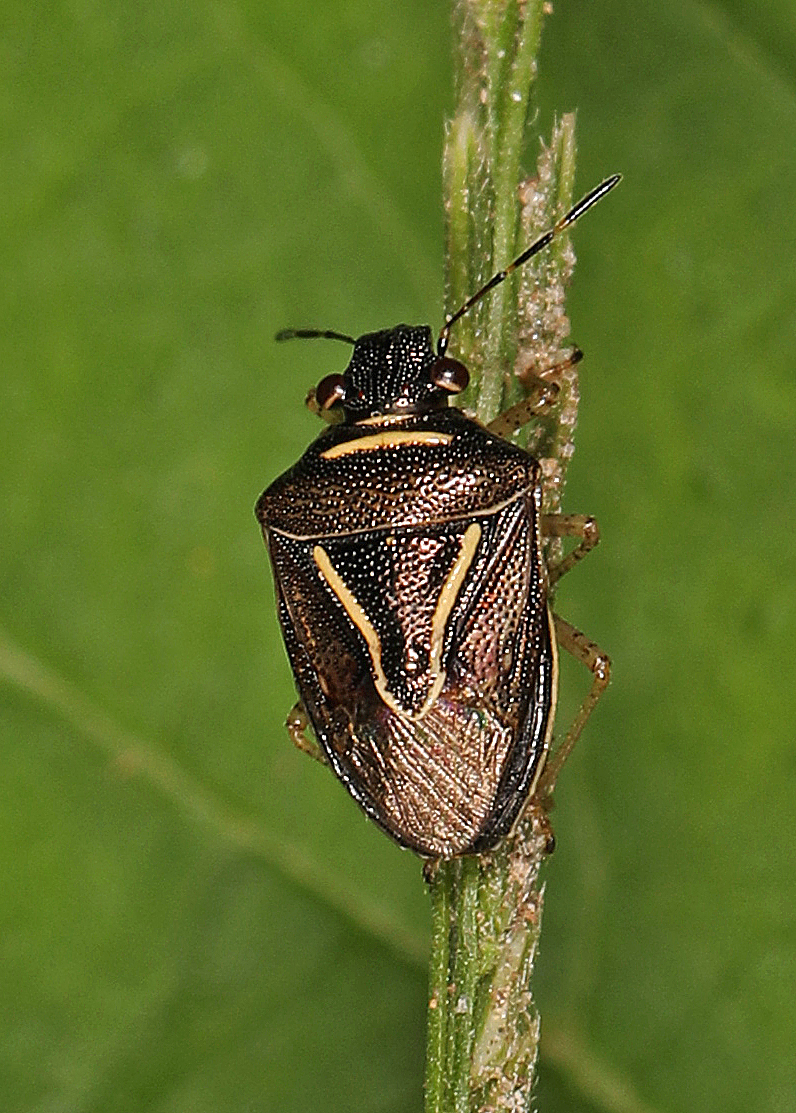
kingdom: Animalia
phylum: Arthropoda
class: Insecta
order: Hemiptera
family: Pentatomidae
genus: Mormidea
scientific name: Mormidea lugens
